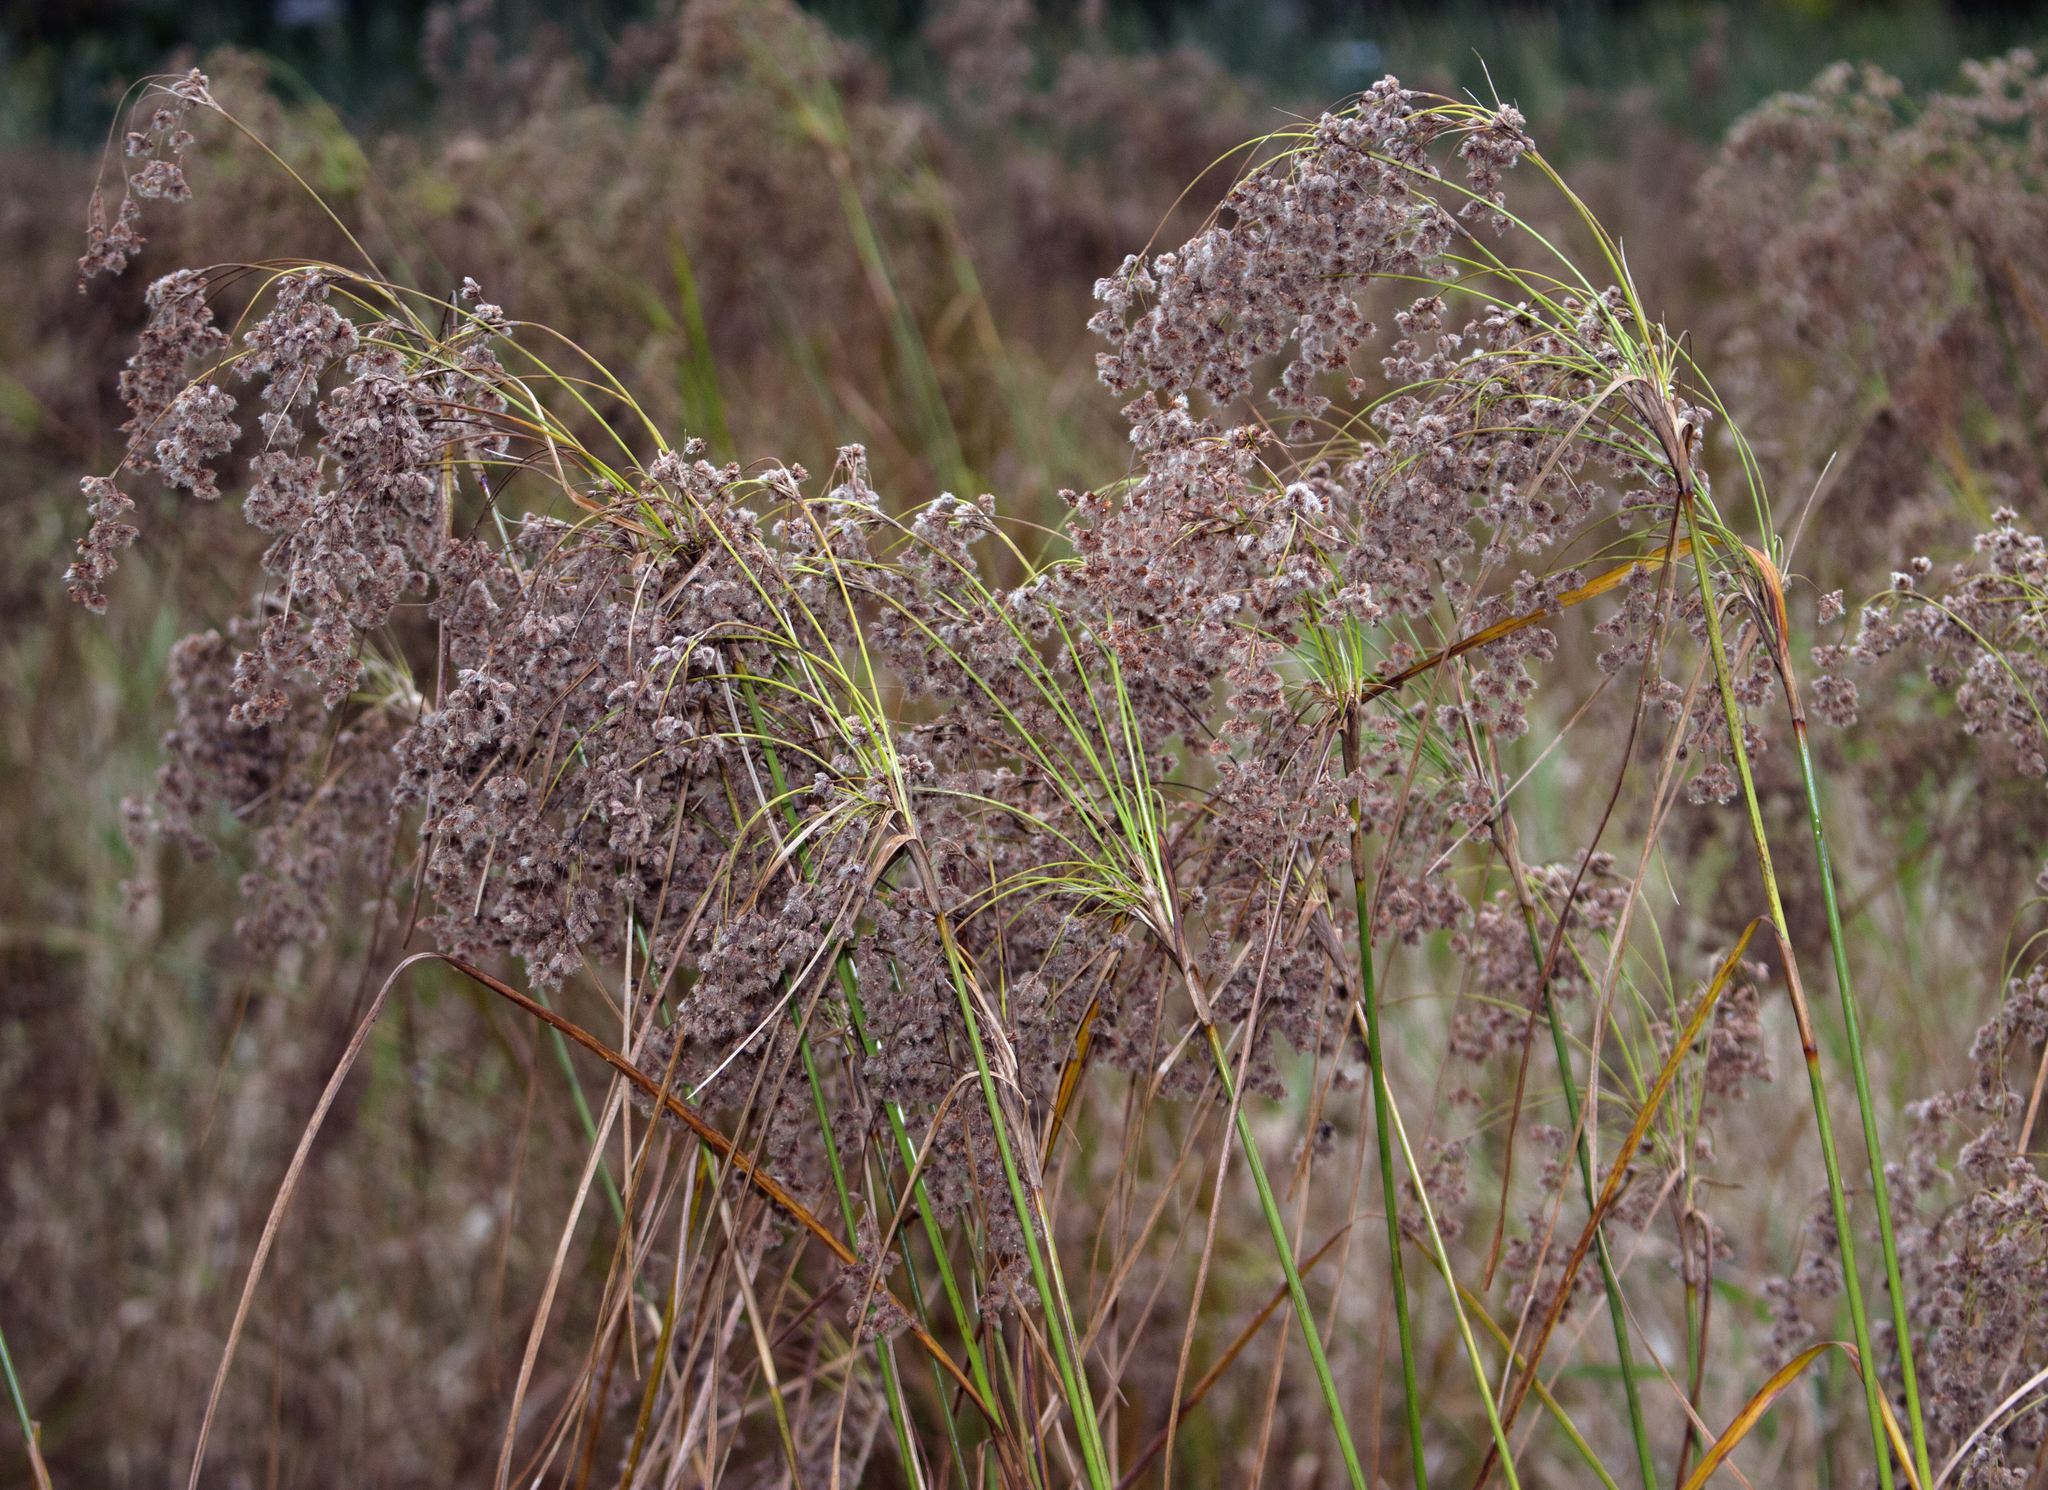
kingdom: Plantae
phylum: Tracheophyta
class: Liliopsida
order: Poales
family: Cyperaceae
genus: Scirpus
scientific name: Scirpus cyperinus
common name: Black-sheathed bulrush
